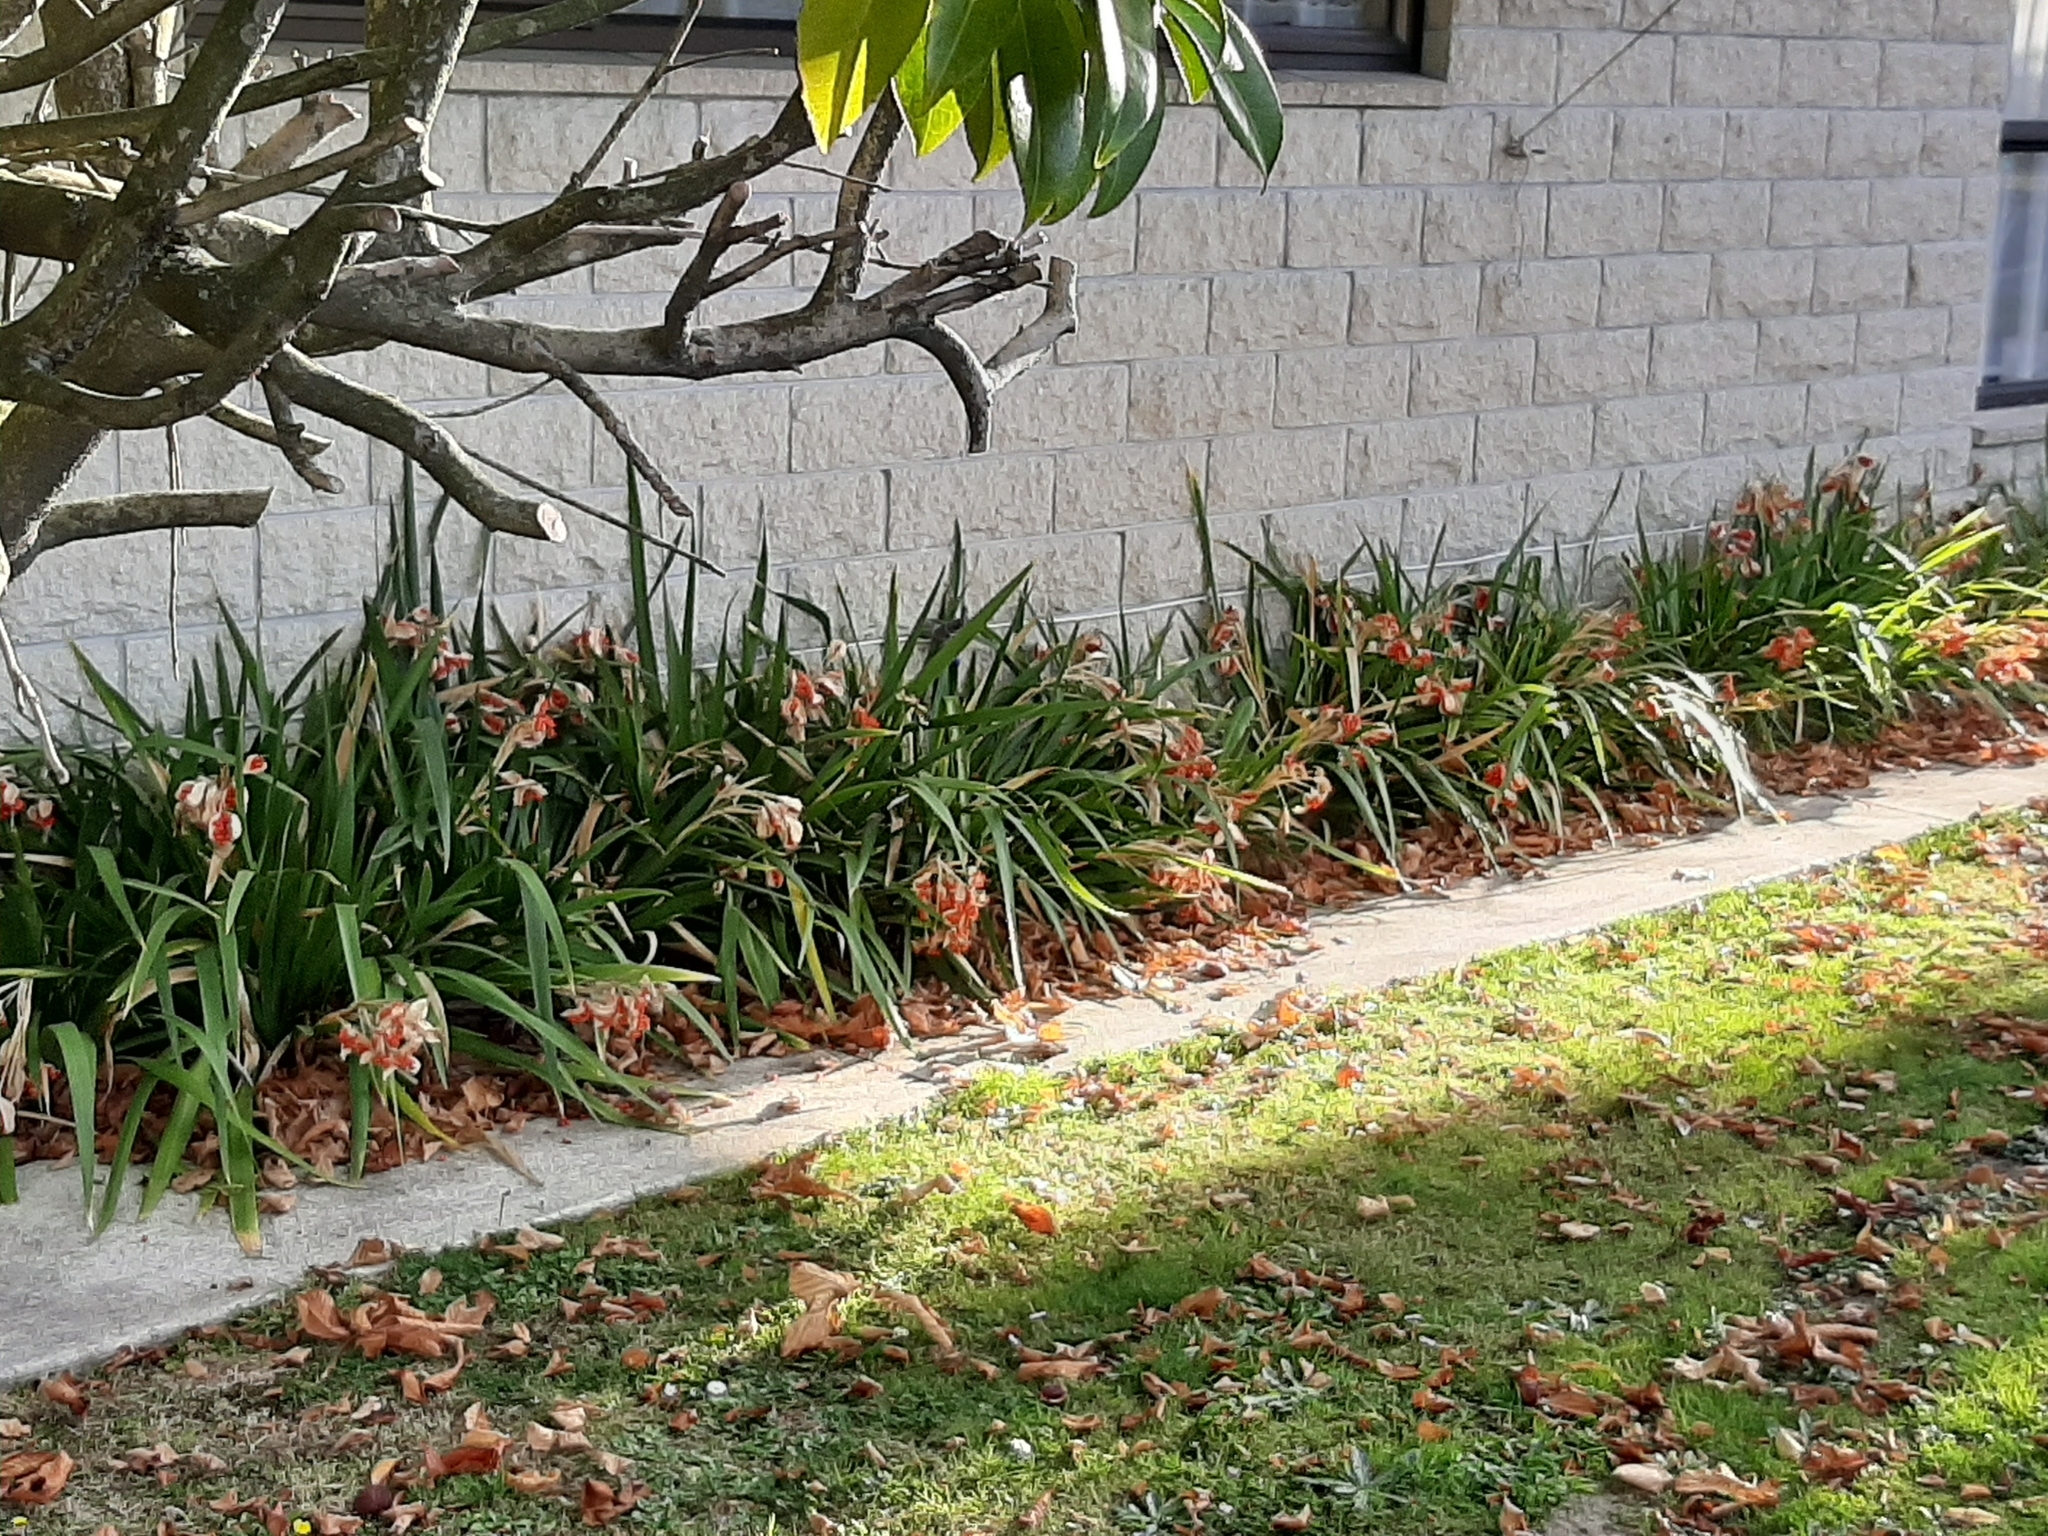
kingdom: Plantae
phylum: Tracheophyta
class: Liliopsida
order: Asparagales
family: Iridaceae
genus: Iris
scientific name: Iris foetidissima
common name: Stinking iris
